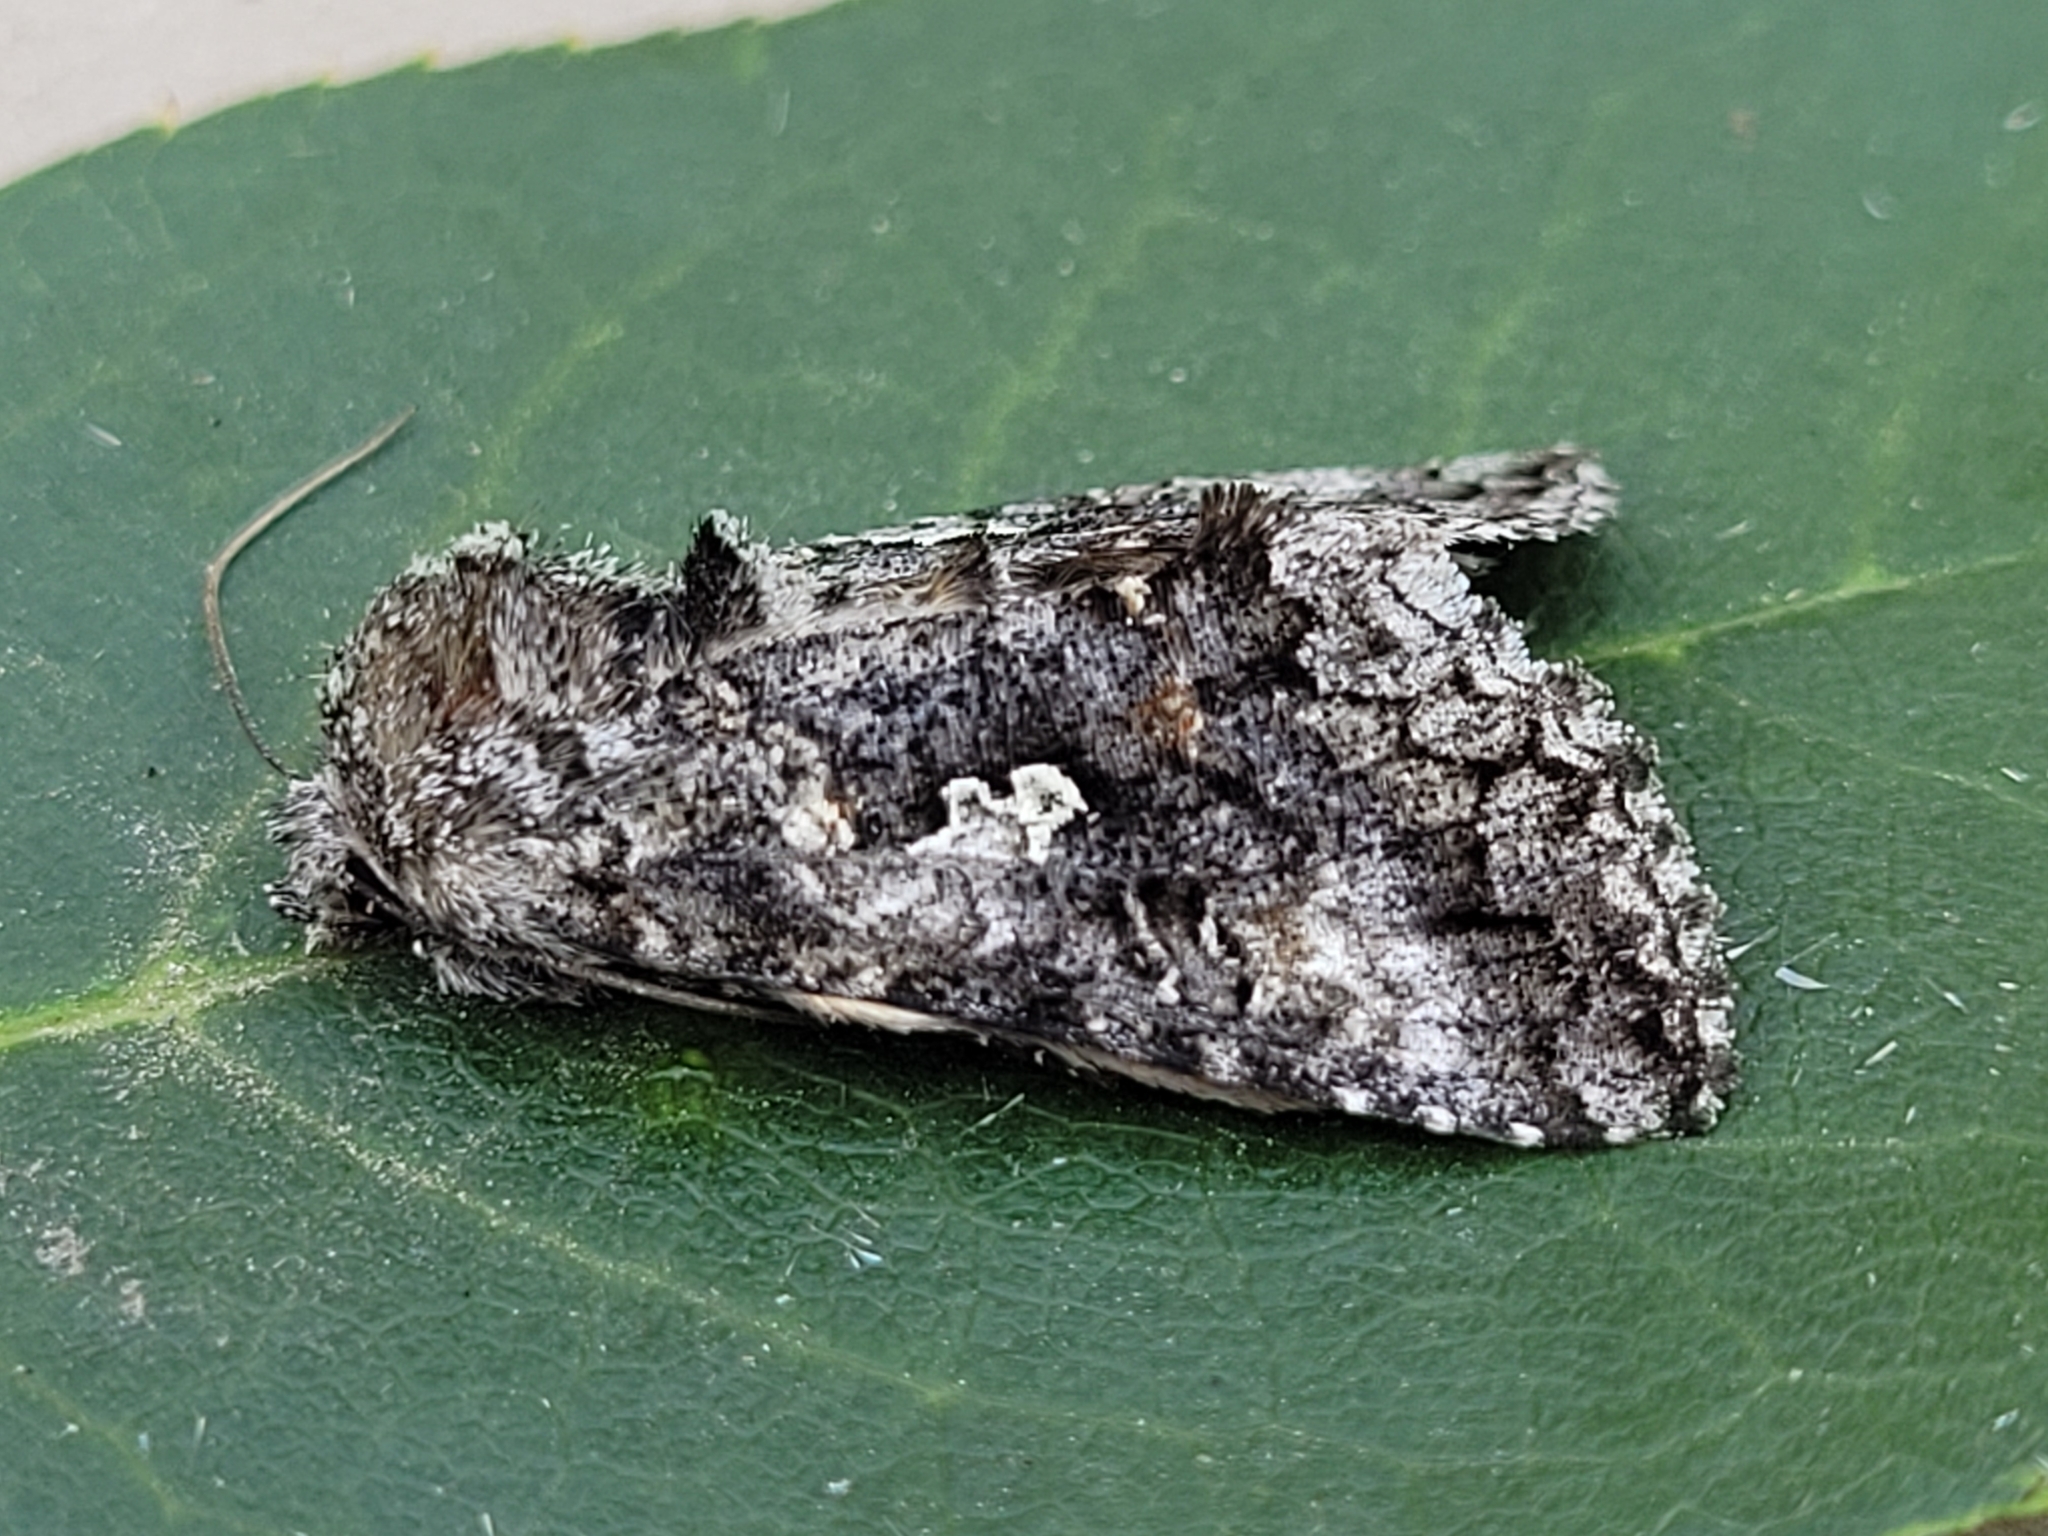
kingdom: Animalia
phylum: Arthropoda
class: Insecta
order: Lepidoptera
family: Noctuidae
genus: Syngrapha
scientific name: Syngrapha octoscripta
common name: Dusky silver y moth
